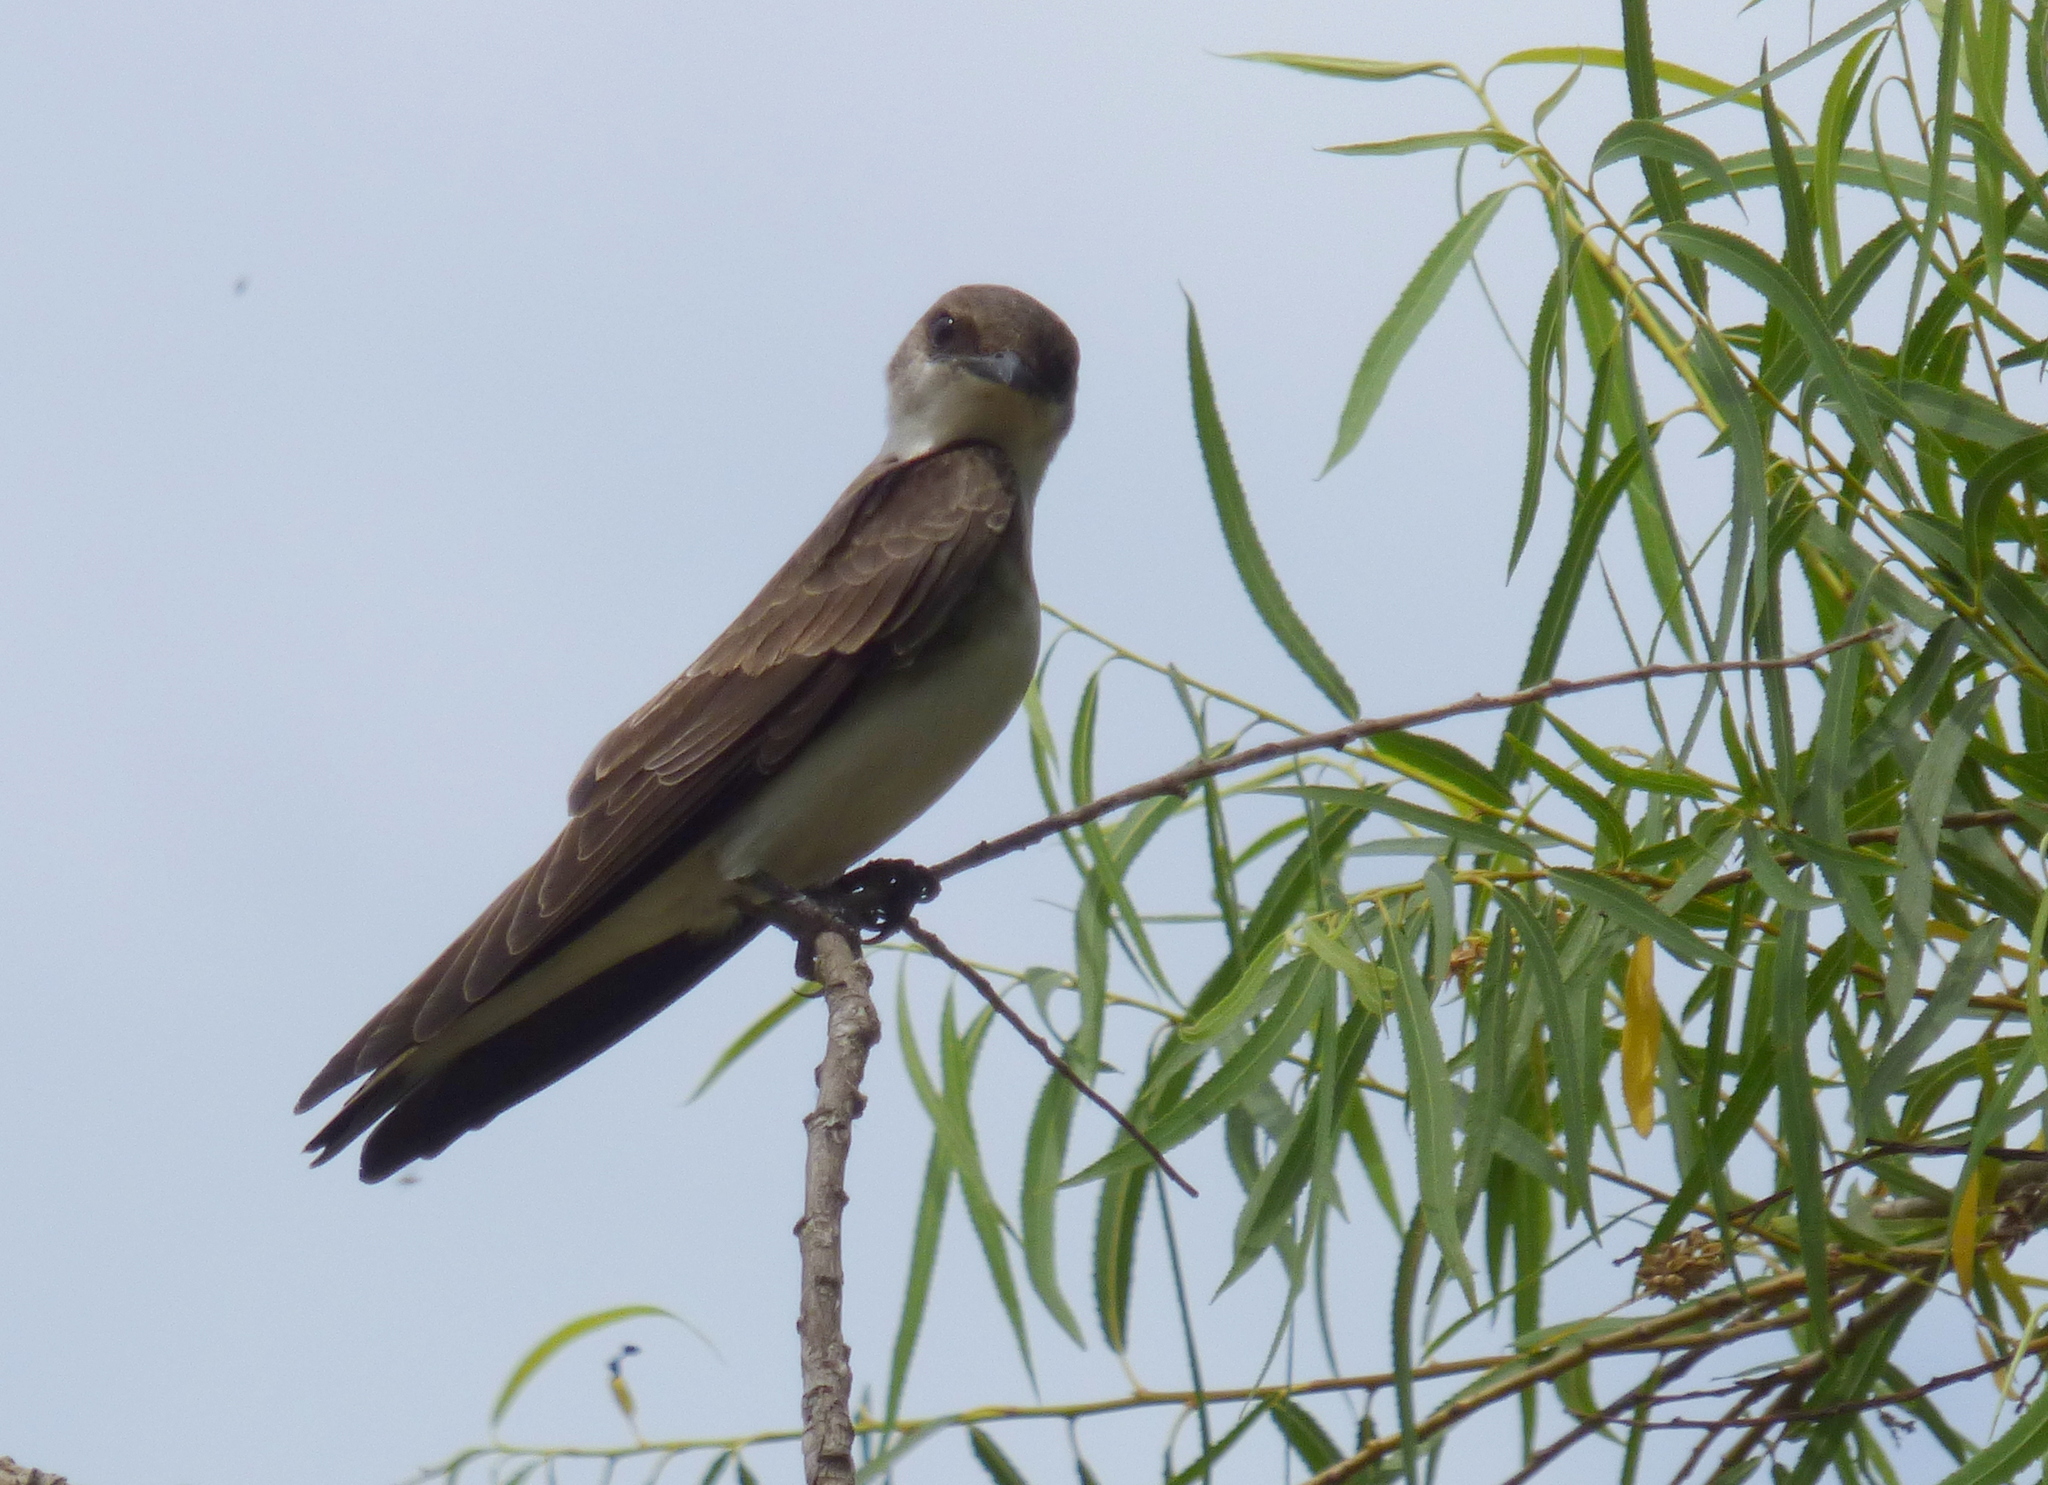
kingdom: Animalia
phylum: Chordata
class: Aves
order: Passeriformes
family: Hirundinidae
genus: Progne
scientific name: Progne tapera
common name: Brown-chested martin
